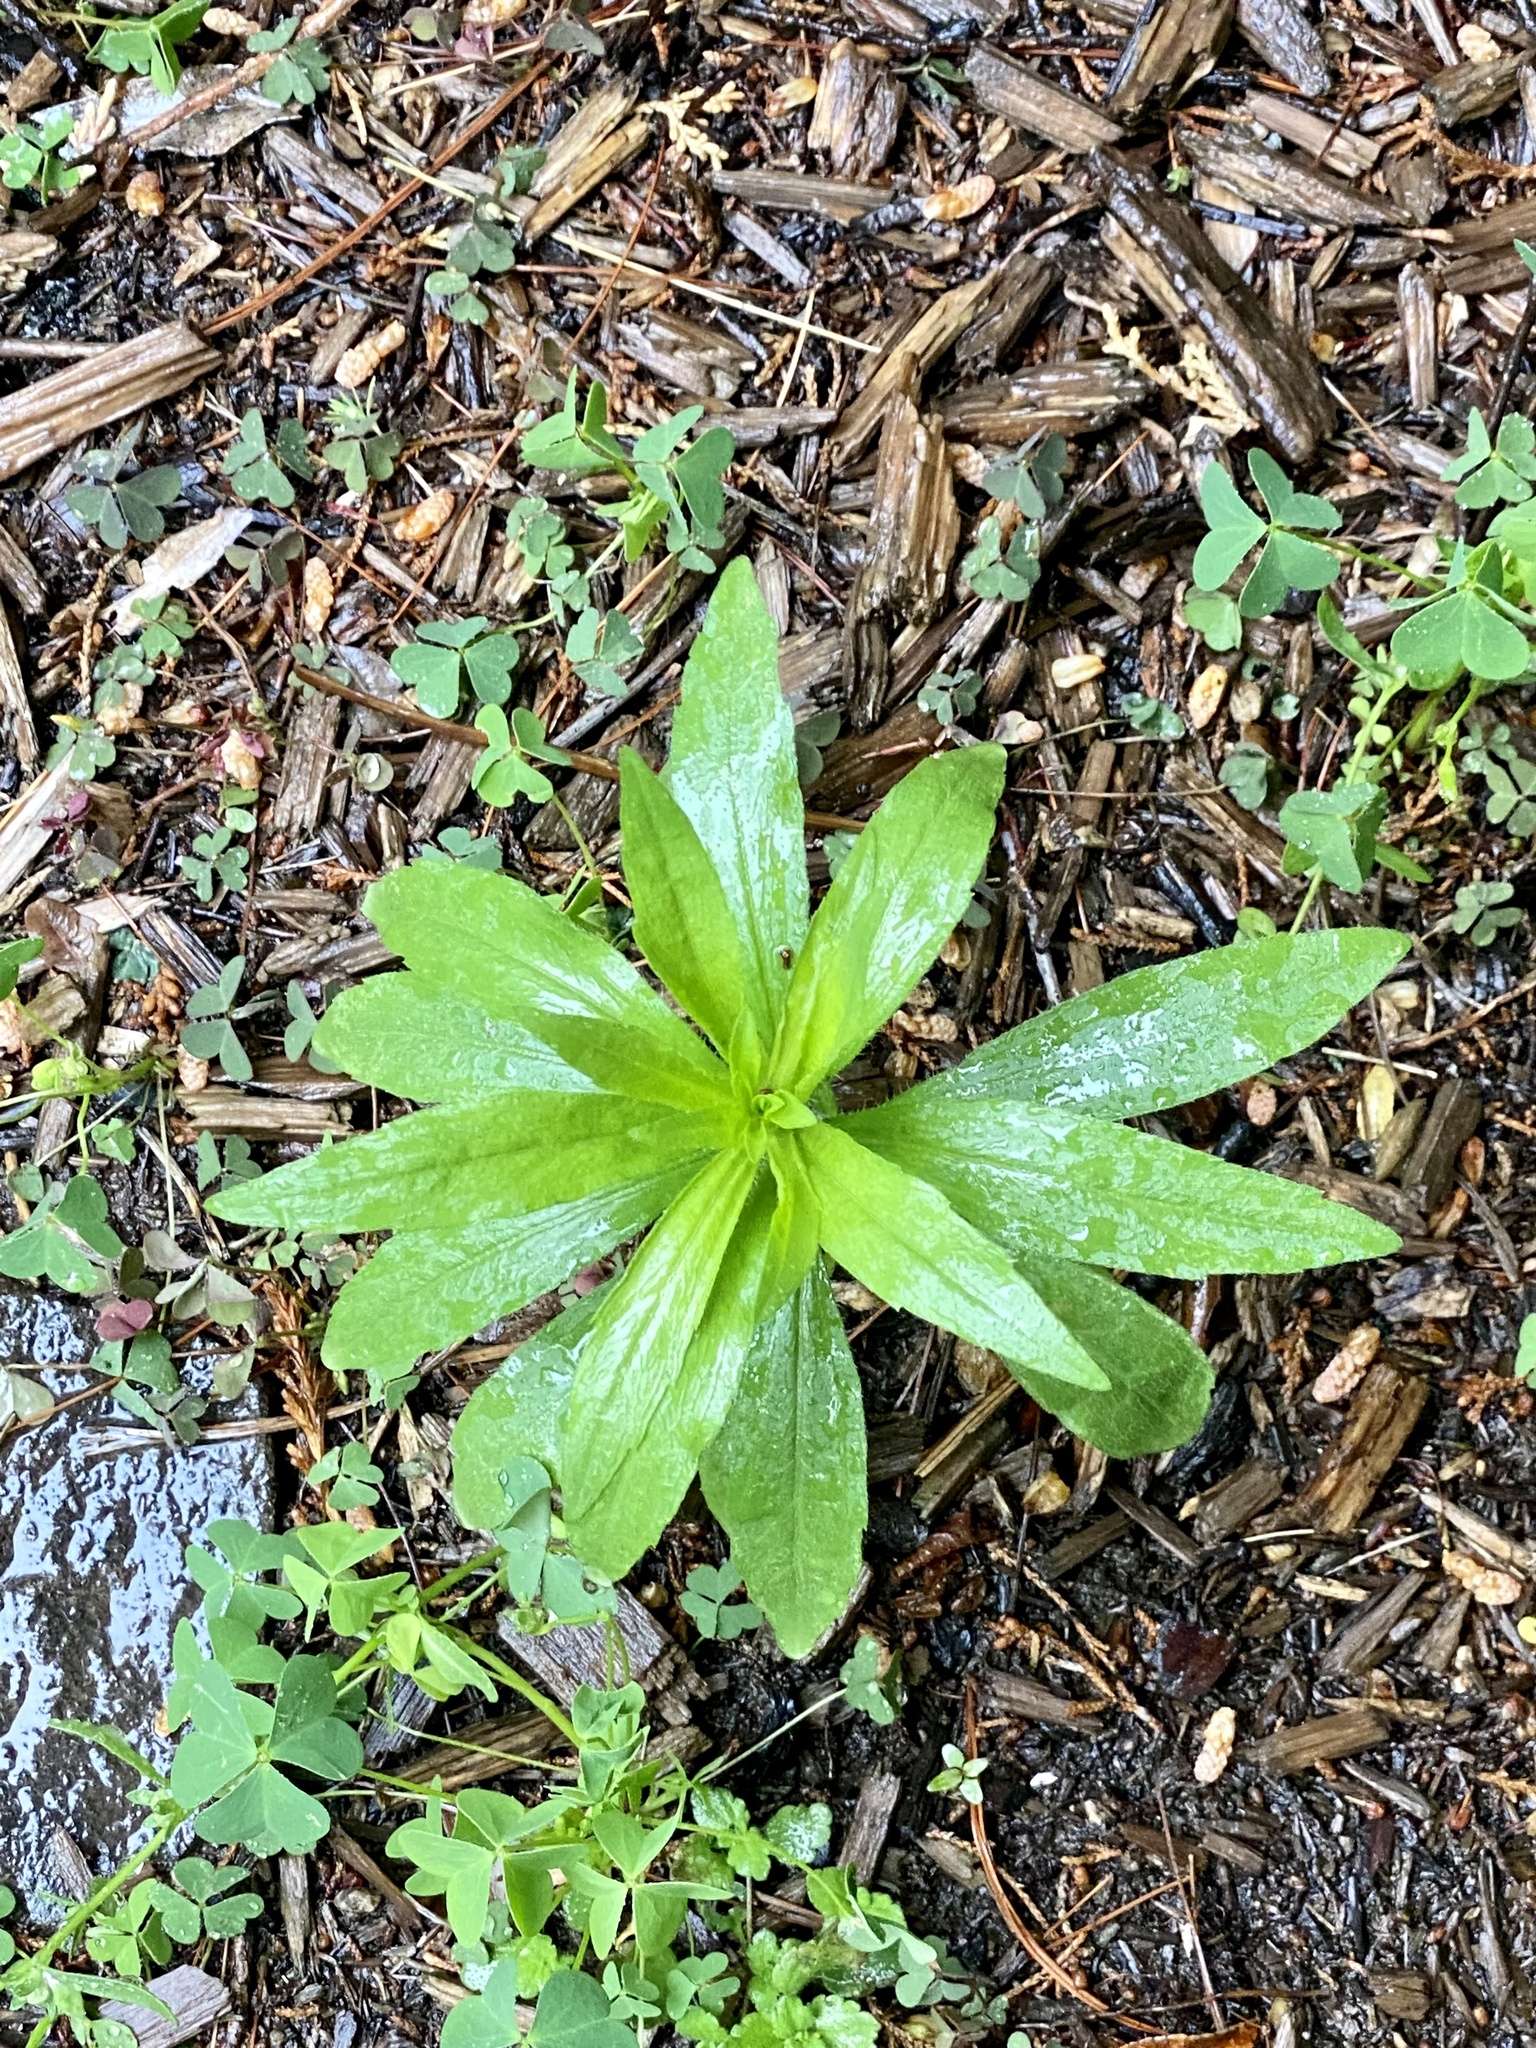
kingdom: Plantae
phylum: Tracheophyta
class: Magnoliopsida
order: Asterales
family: Asteraceae
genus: Erigeron
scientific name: Erigeron canadensis
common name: Canadian fleabane
